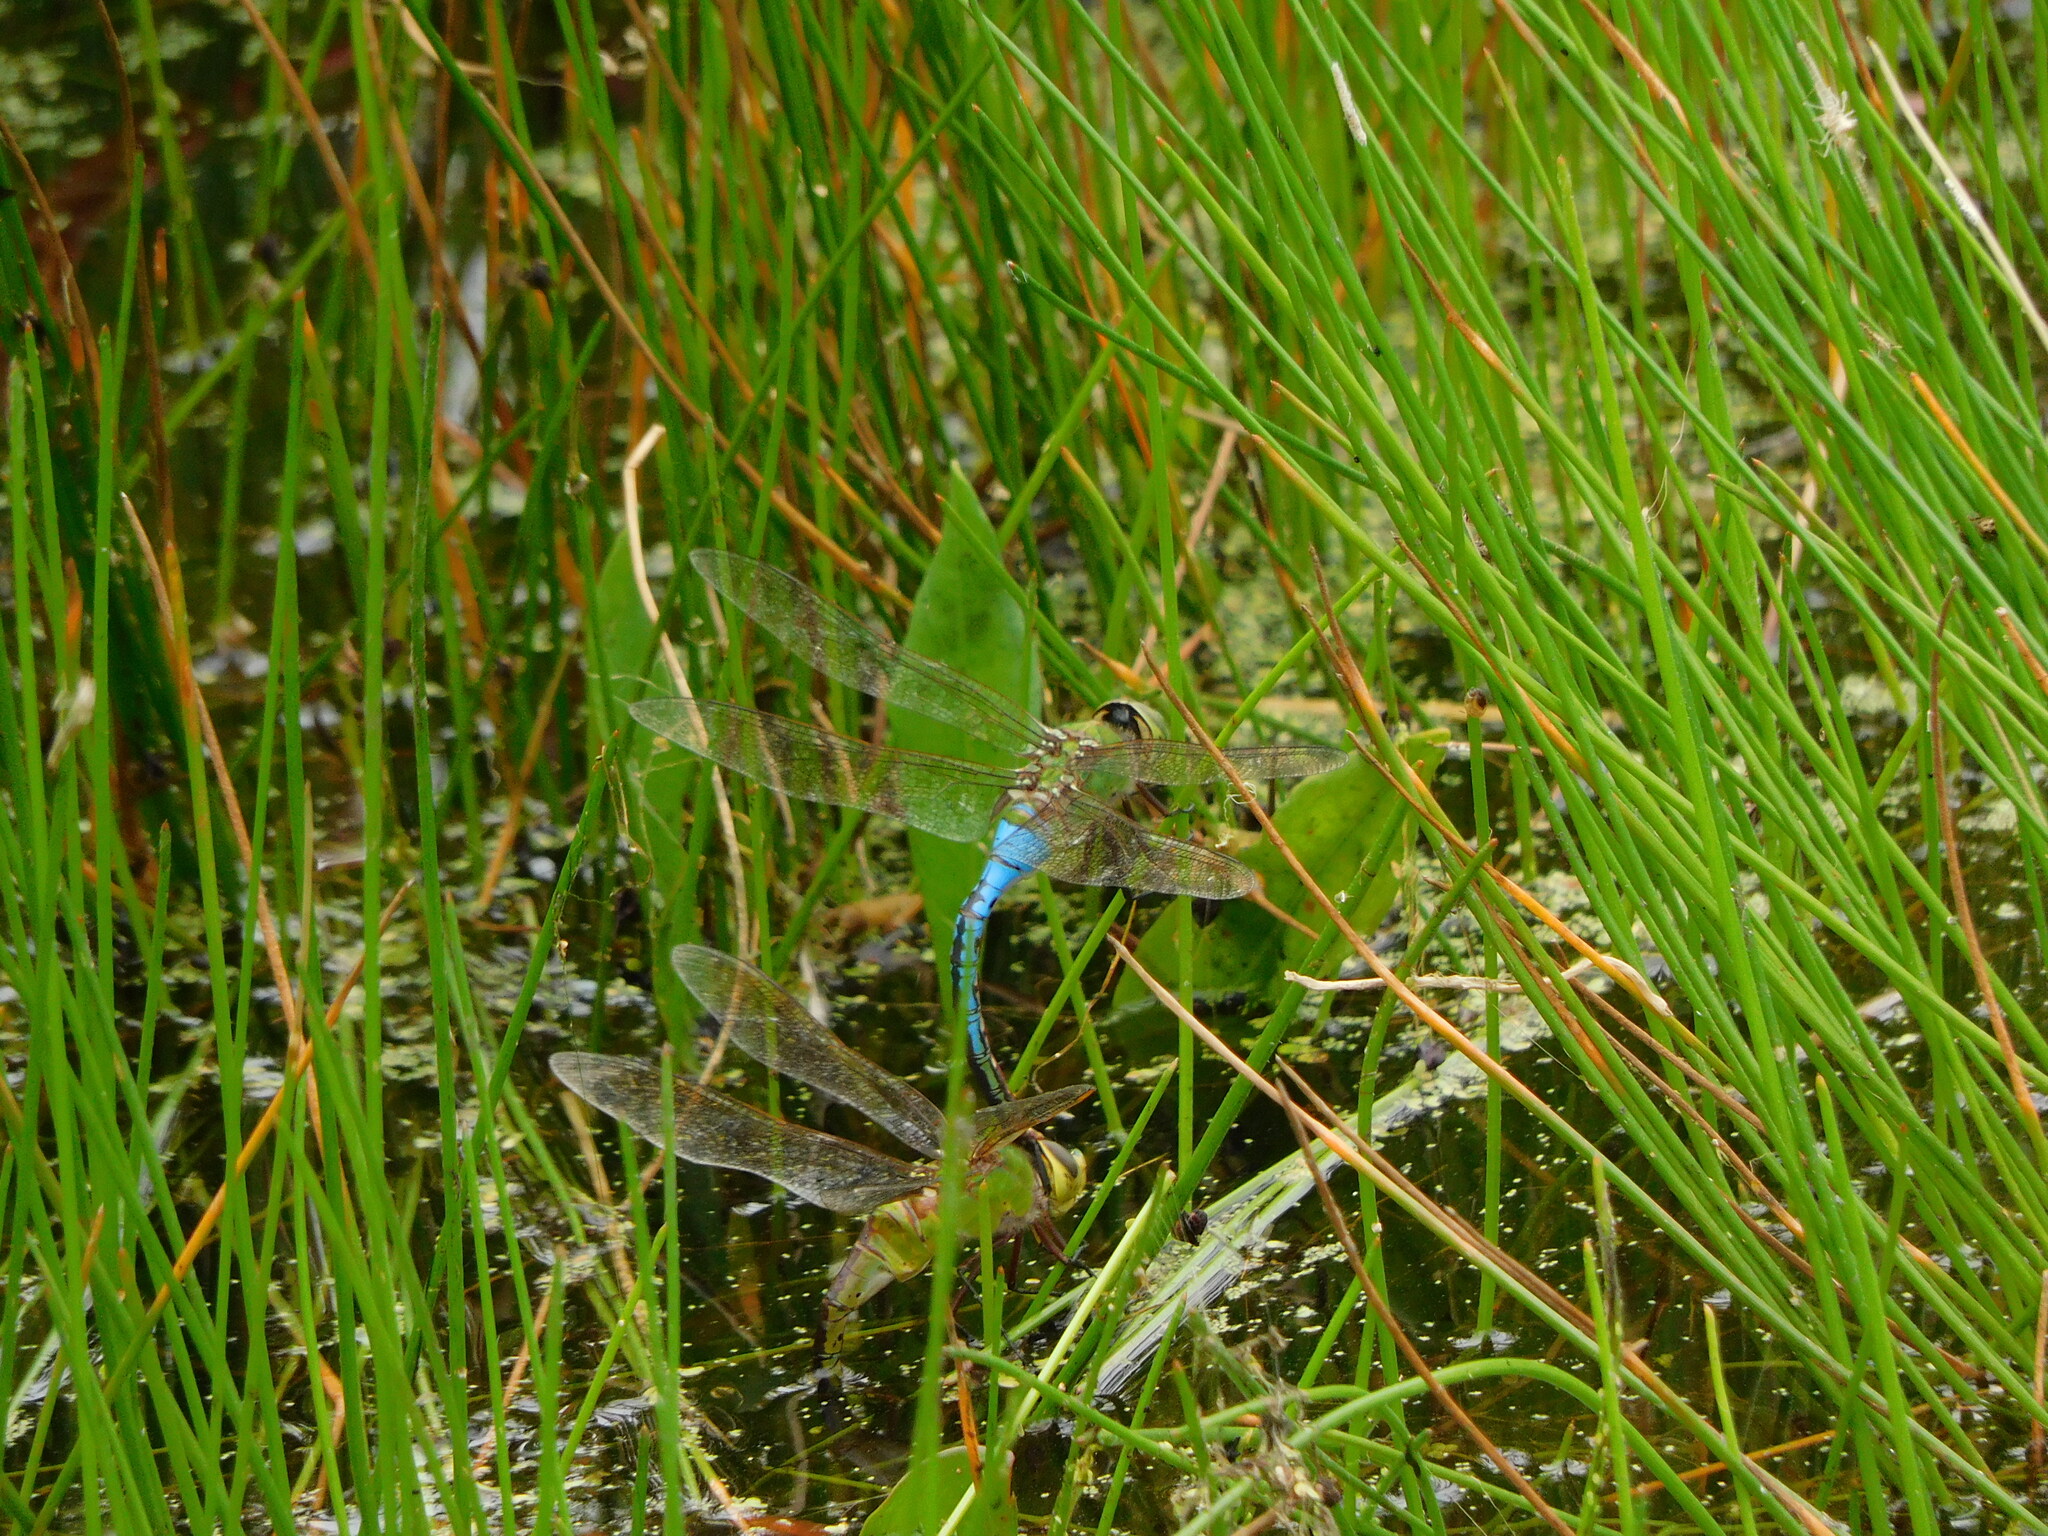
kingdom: Animalia
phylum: Arthropoda
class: Insecta
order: Odonata
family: Aeshnidae
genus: Anax
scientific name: Anax junius
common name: Common green darner
